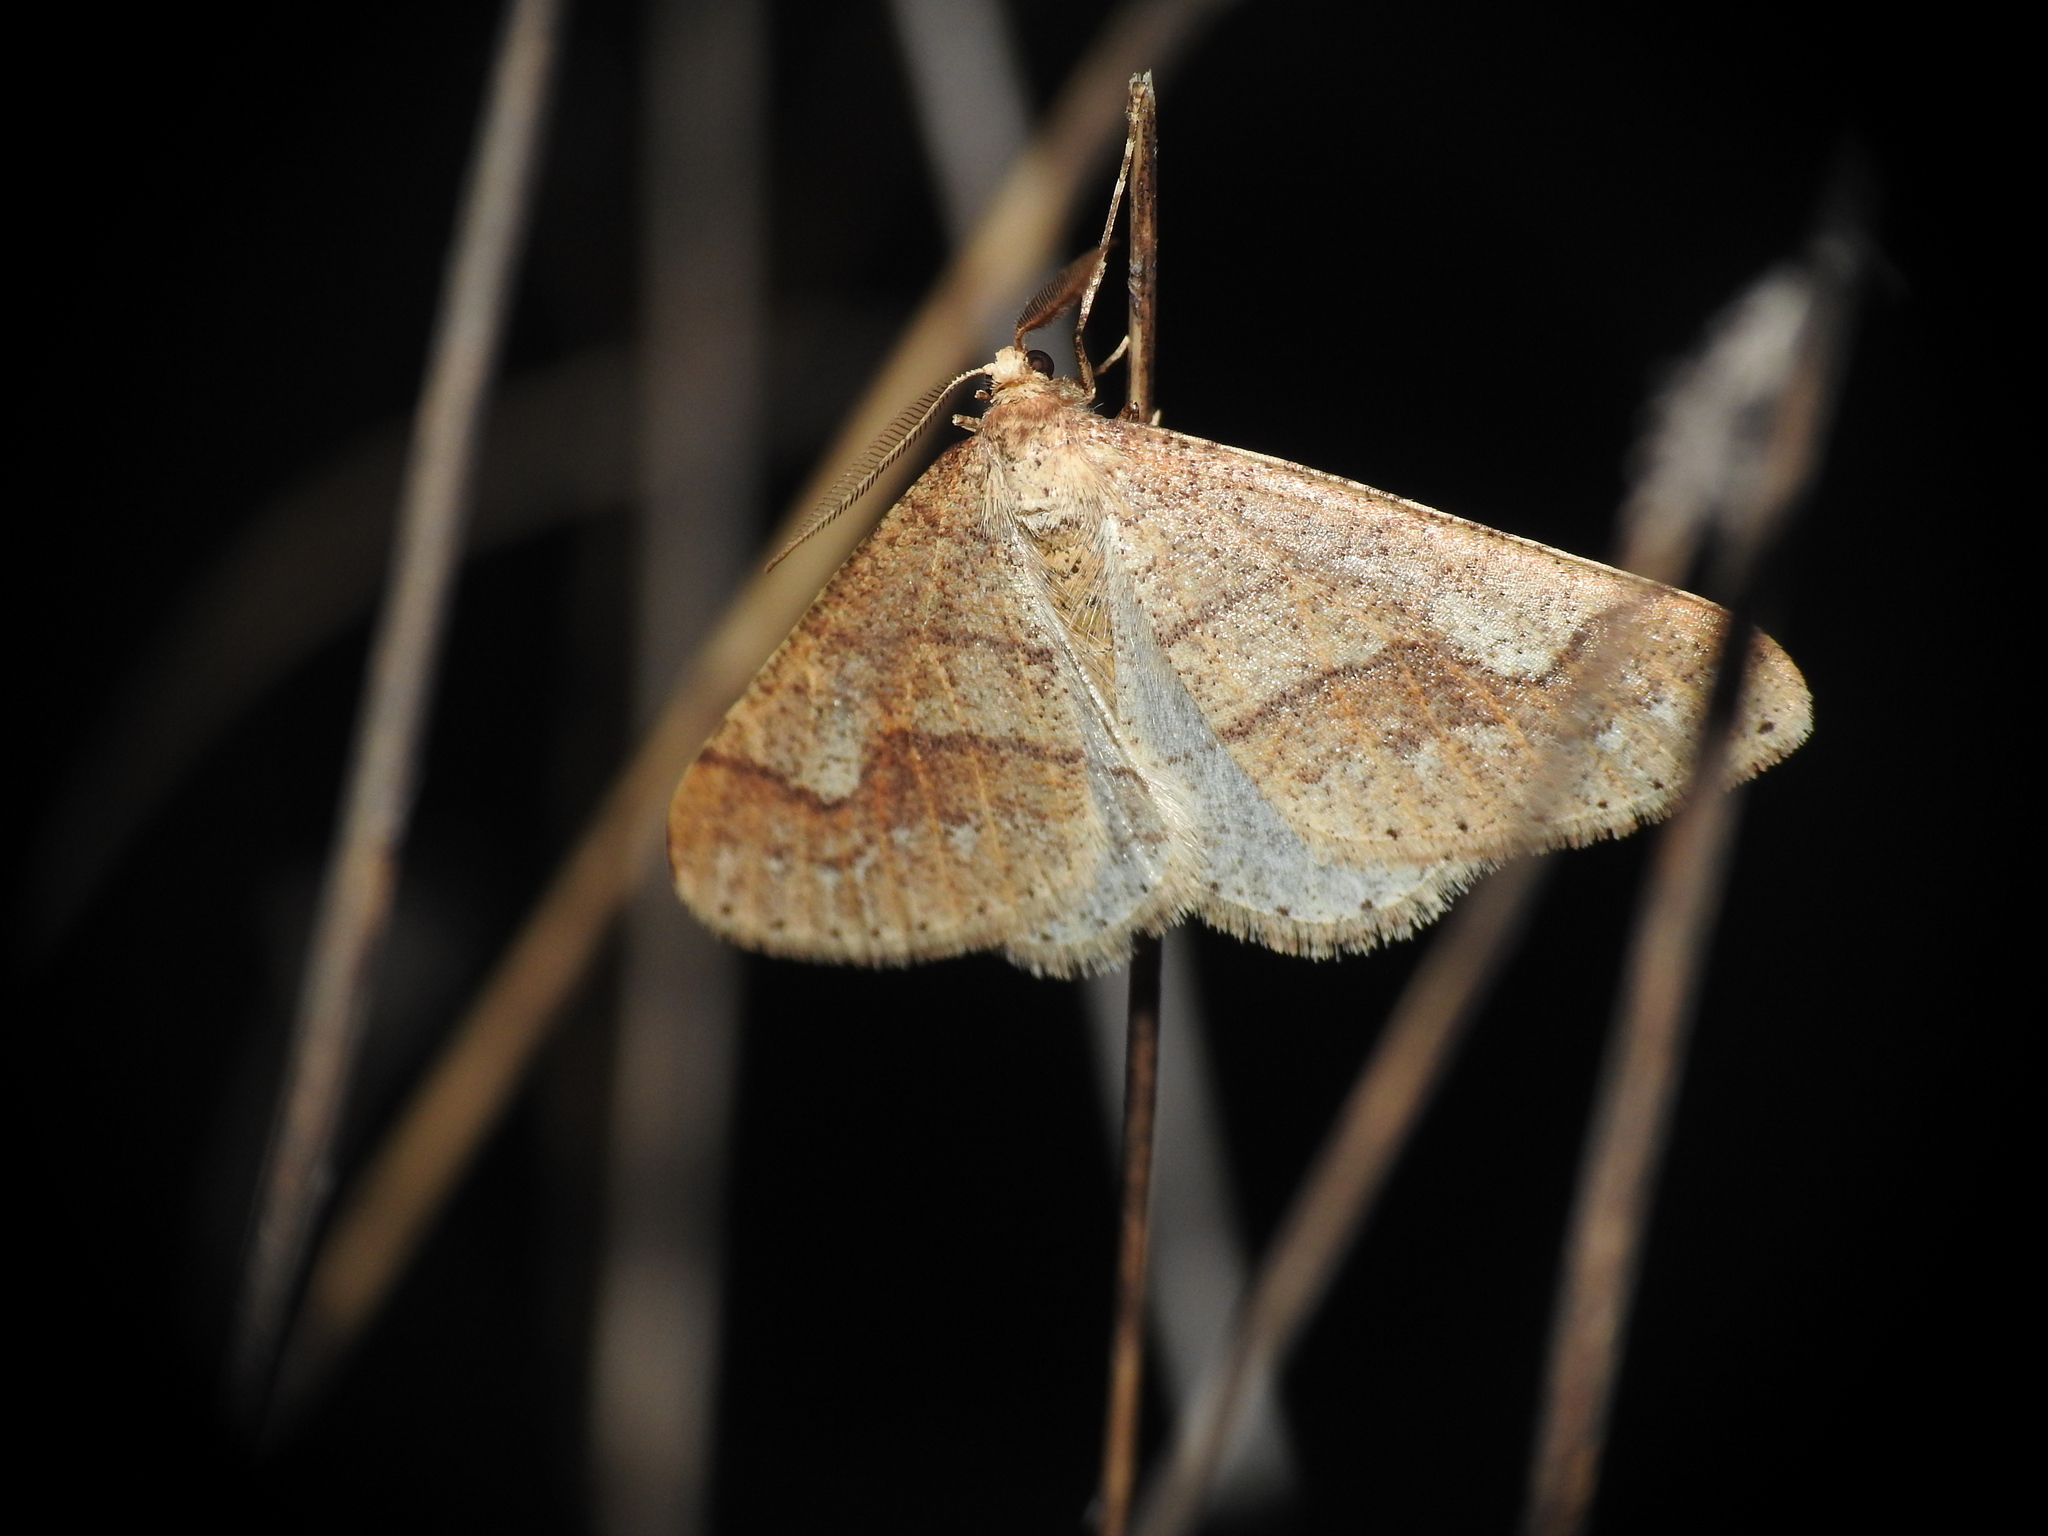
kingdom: Animalia
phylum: Arthropoda
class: Insecta
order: Lepidoptera
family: Geometridae
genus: Agriopis
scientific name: Agriopis marginaria
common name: Dotted border
